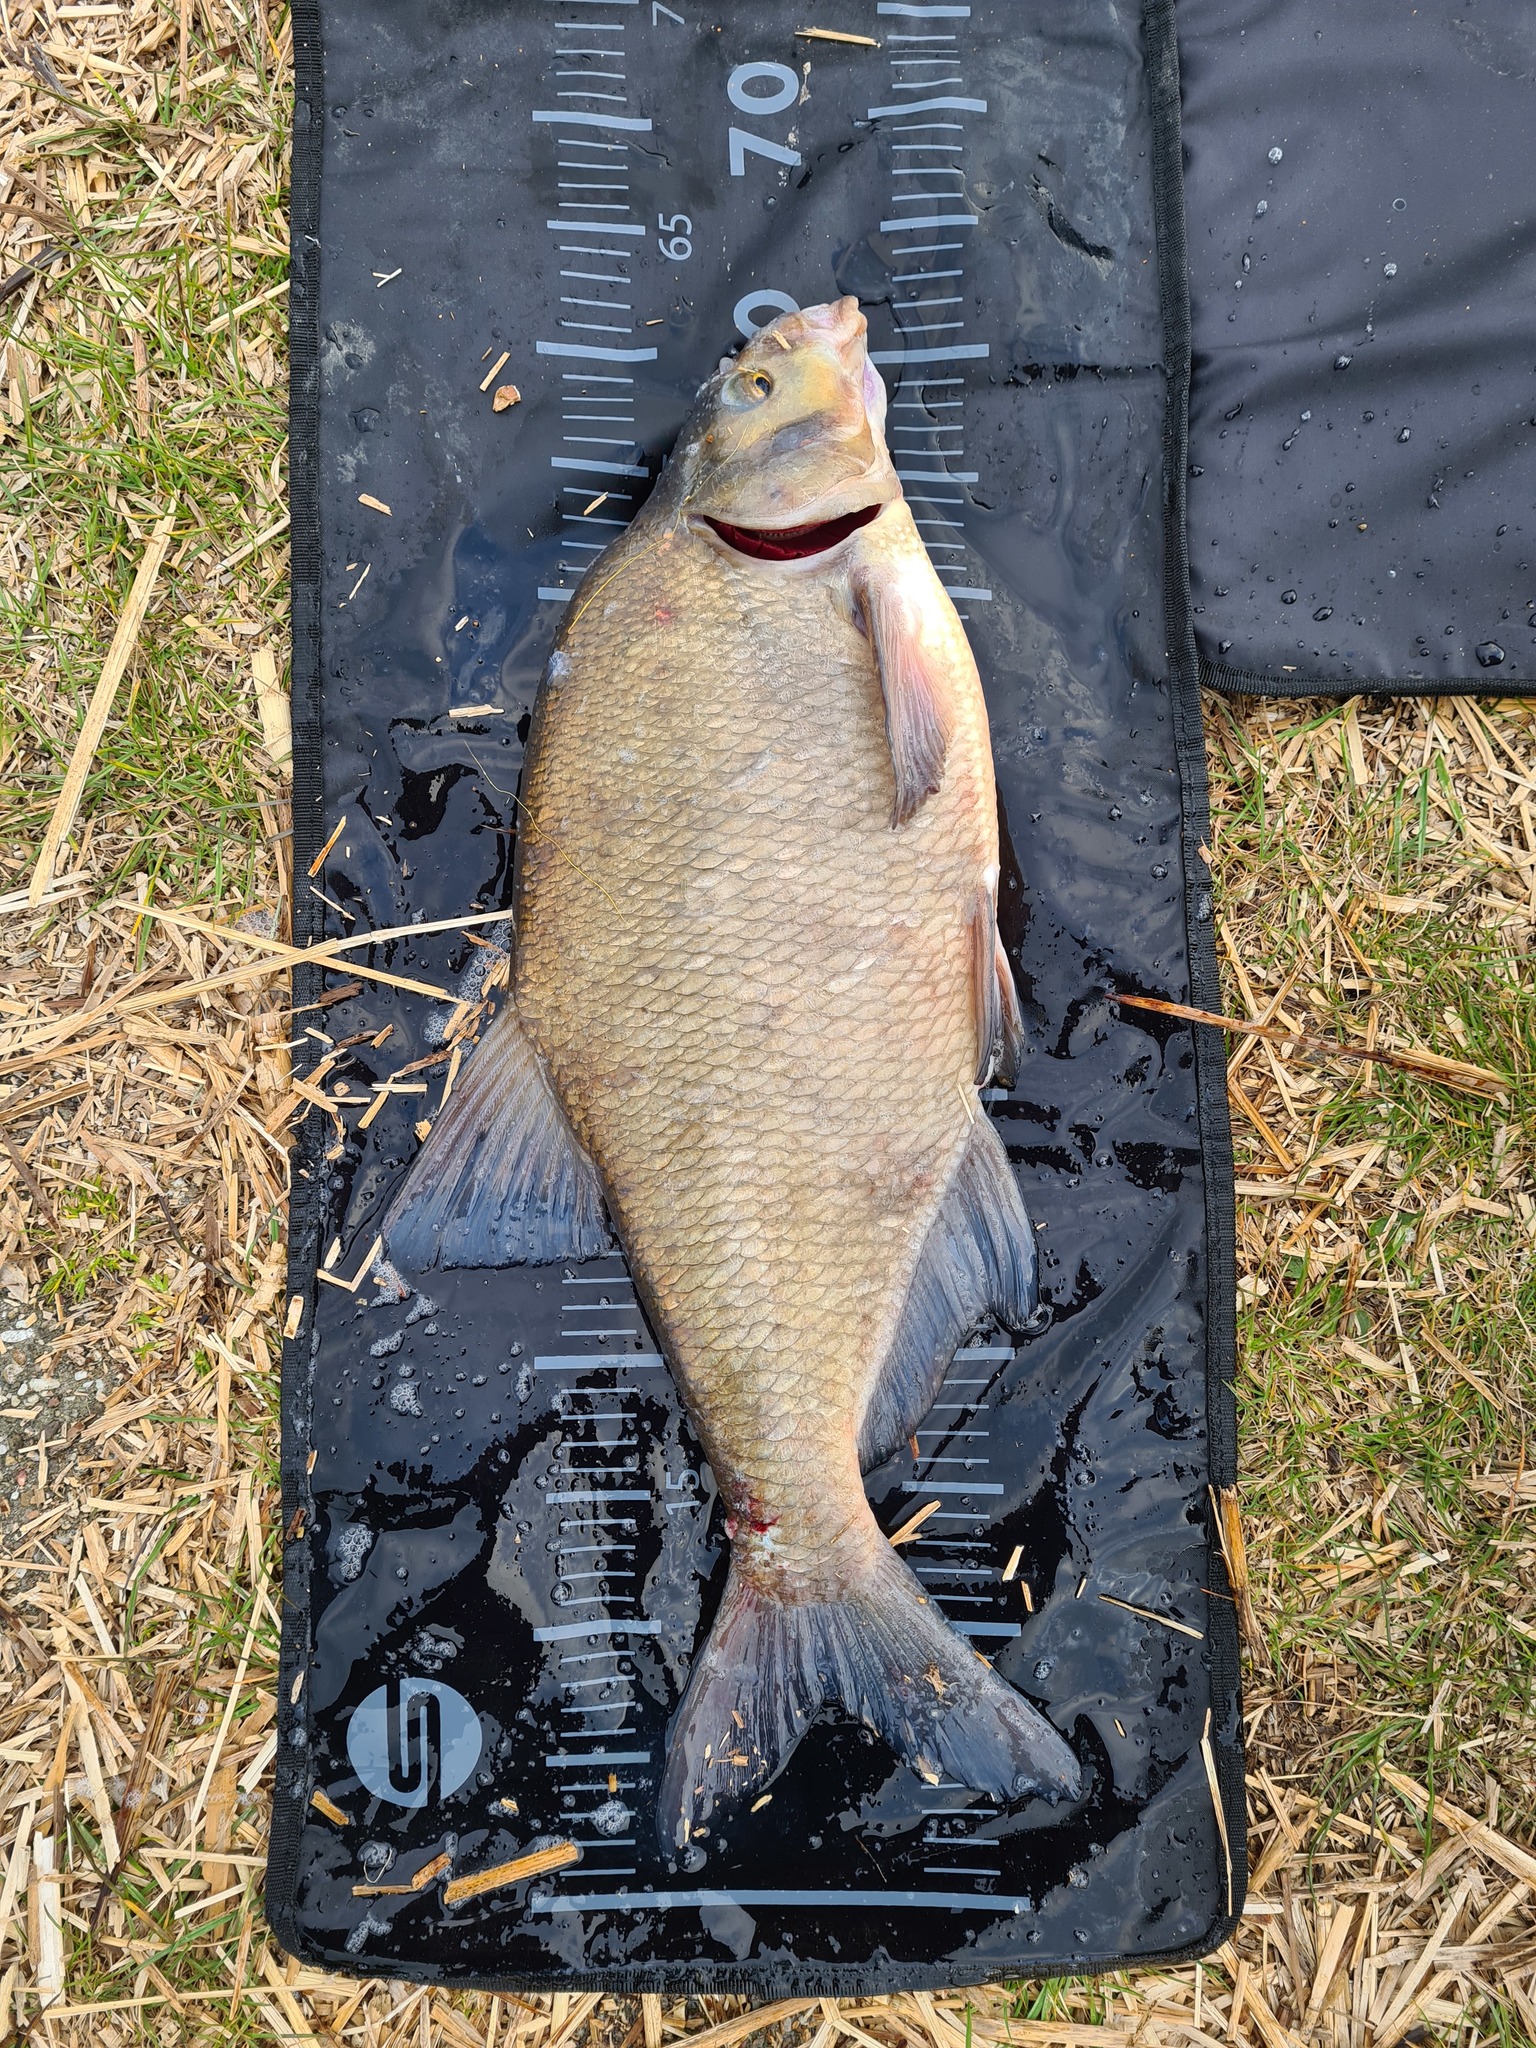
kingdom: Animalia
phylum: Chordata
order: Cypriniformes
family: Cyprinidae
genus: Abramis
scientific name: Abramis brama
